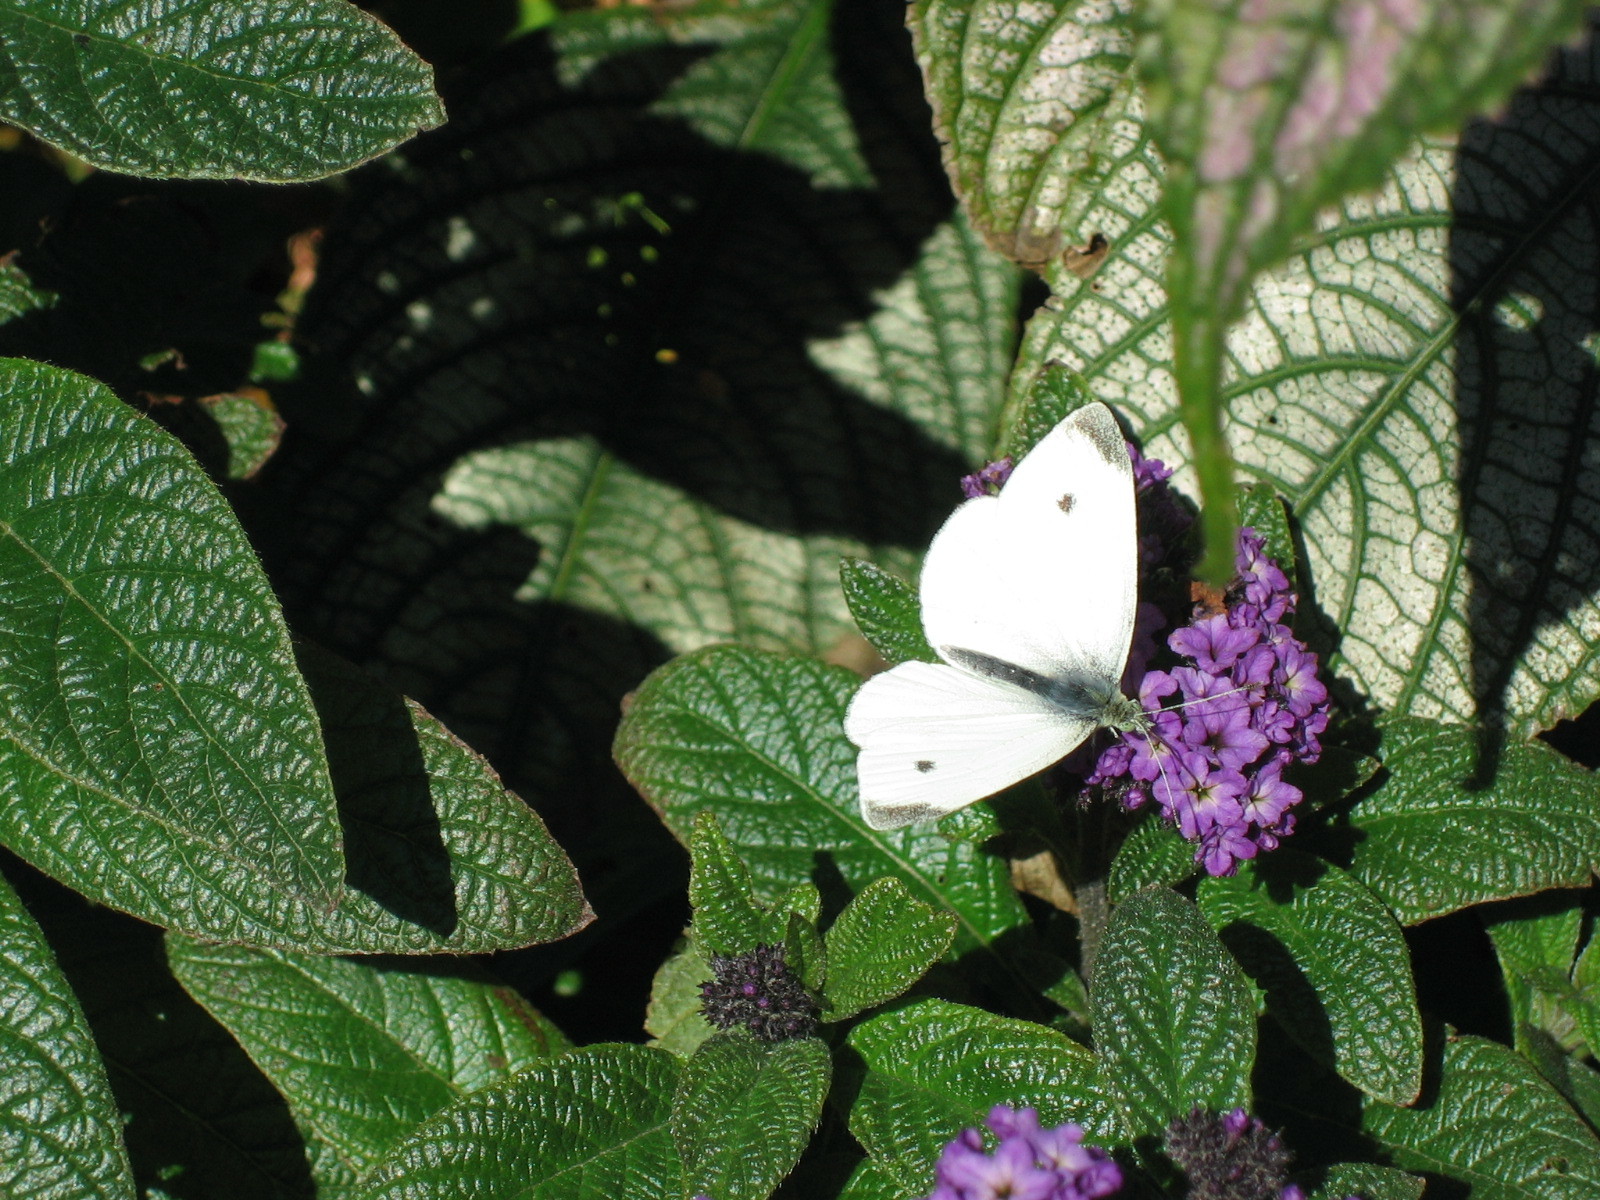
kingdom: Animalia
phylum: Arthropoda
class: Insecta
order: Lepidoptera
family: Pieridae
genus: Pieris
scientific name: Pieris rapae
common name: Small white
